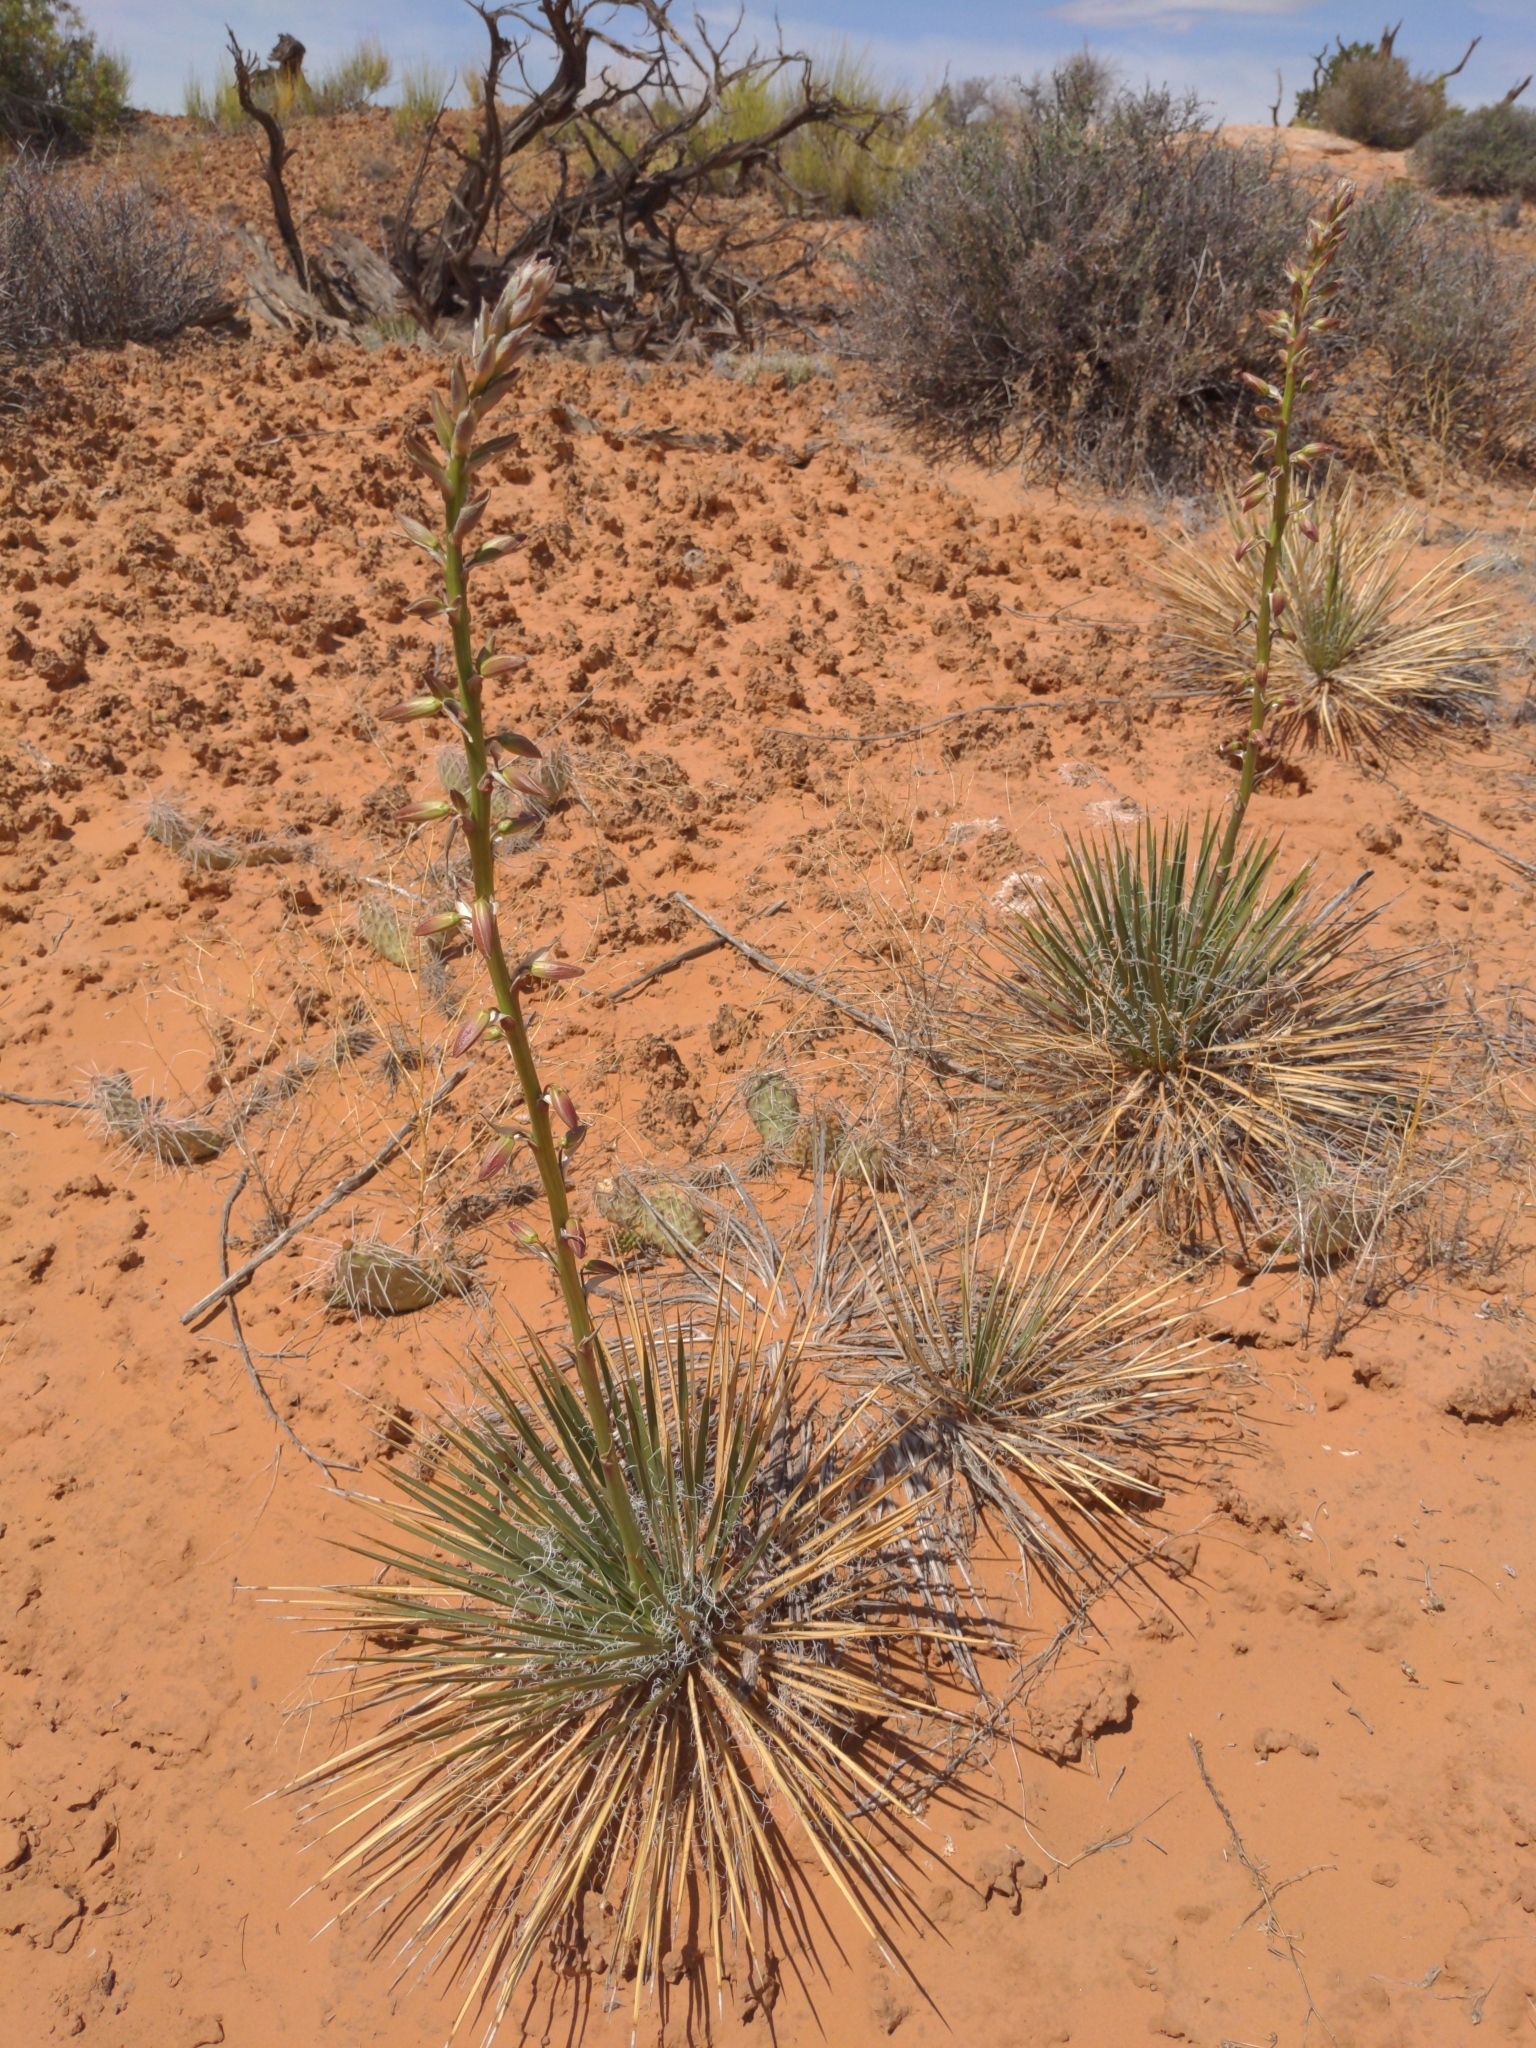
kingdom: Plantae
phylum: Tracheophyta
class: Liliopsida
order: Asparagales
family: Asparagaceae
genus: Yucca
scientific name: Yucca angustissima
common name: Narrowleaf yucca
